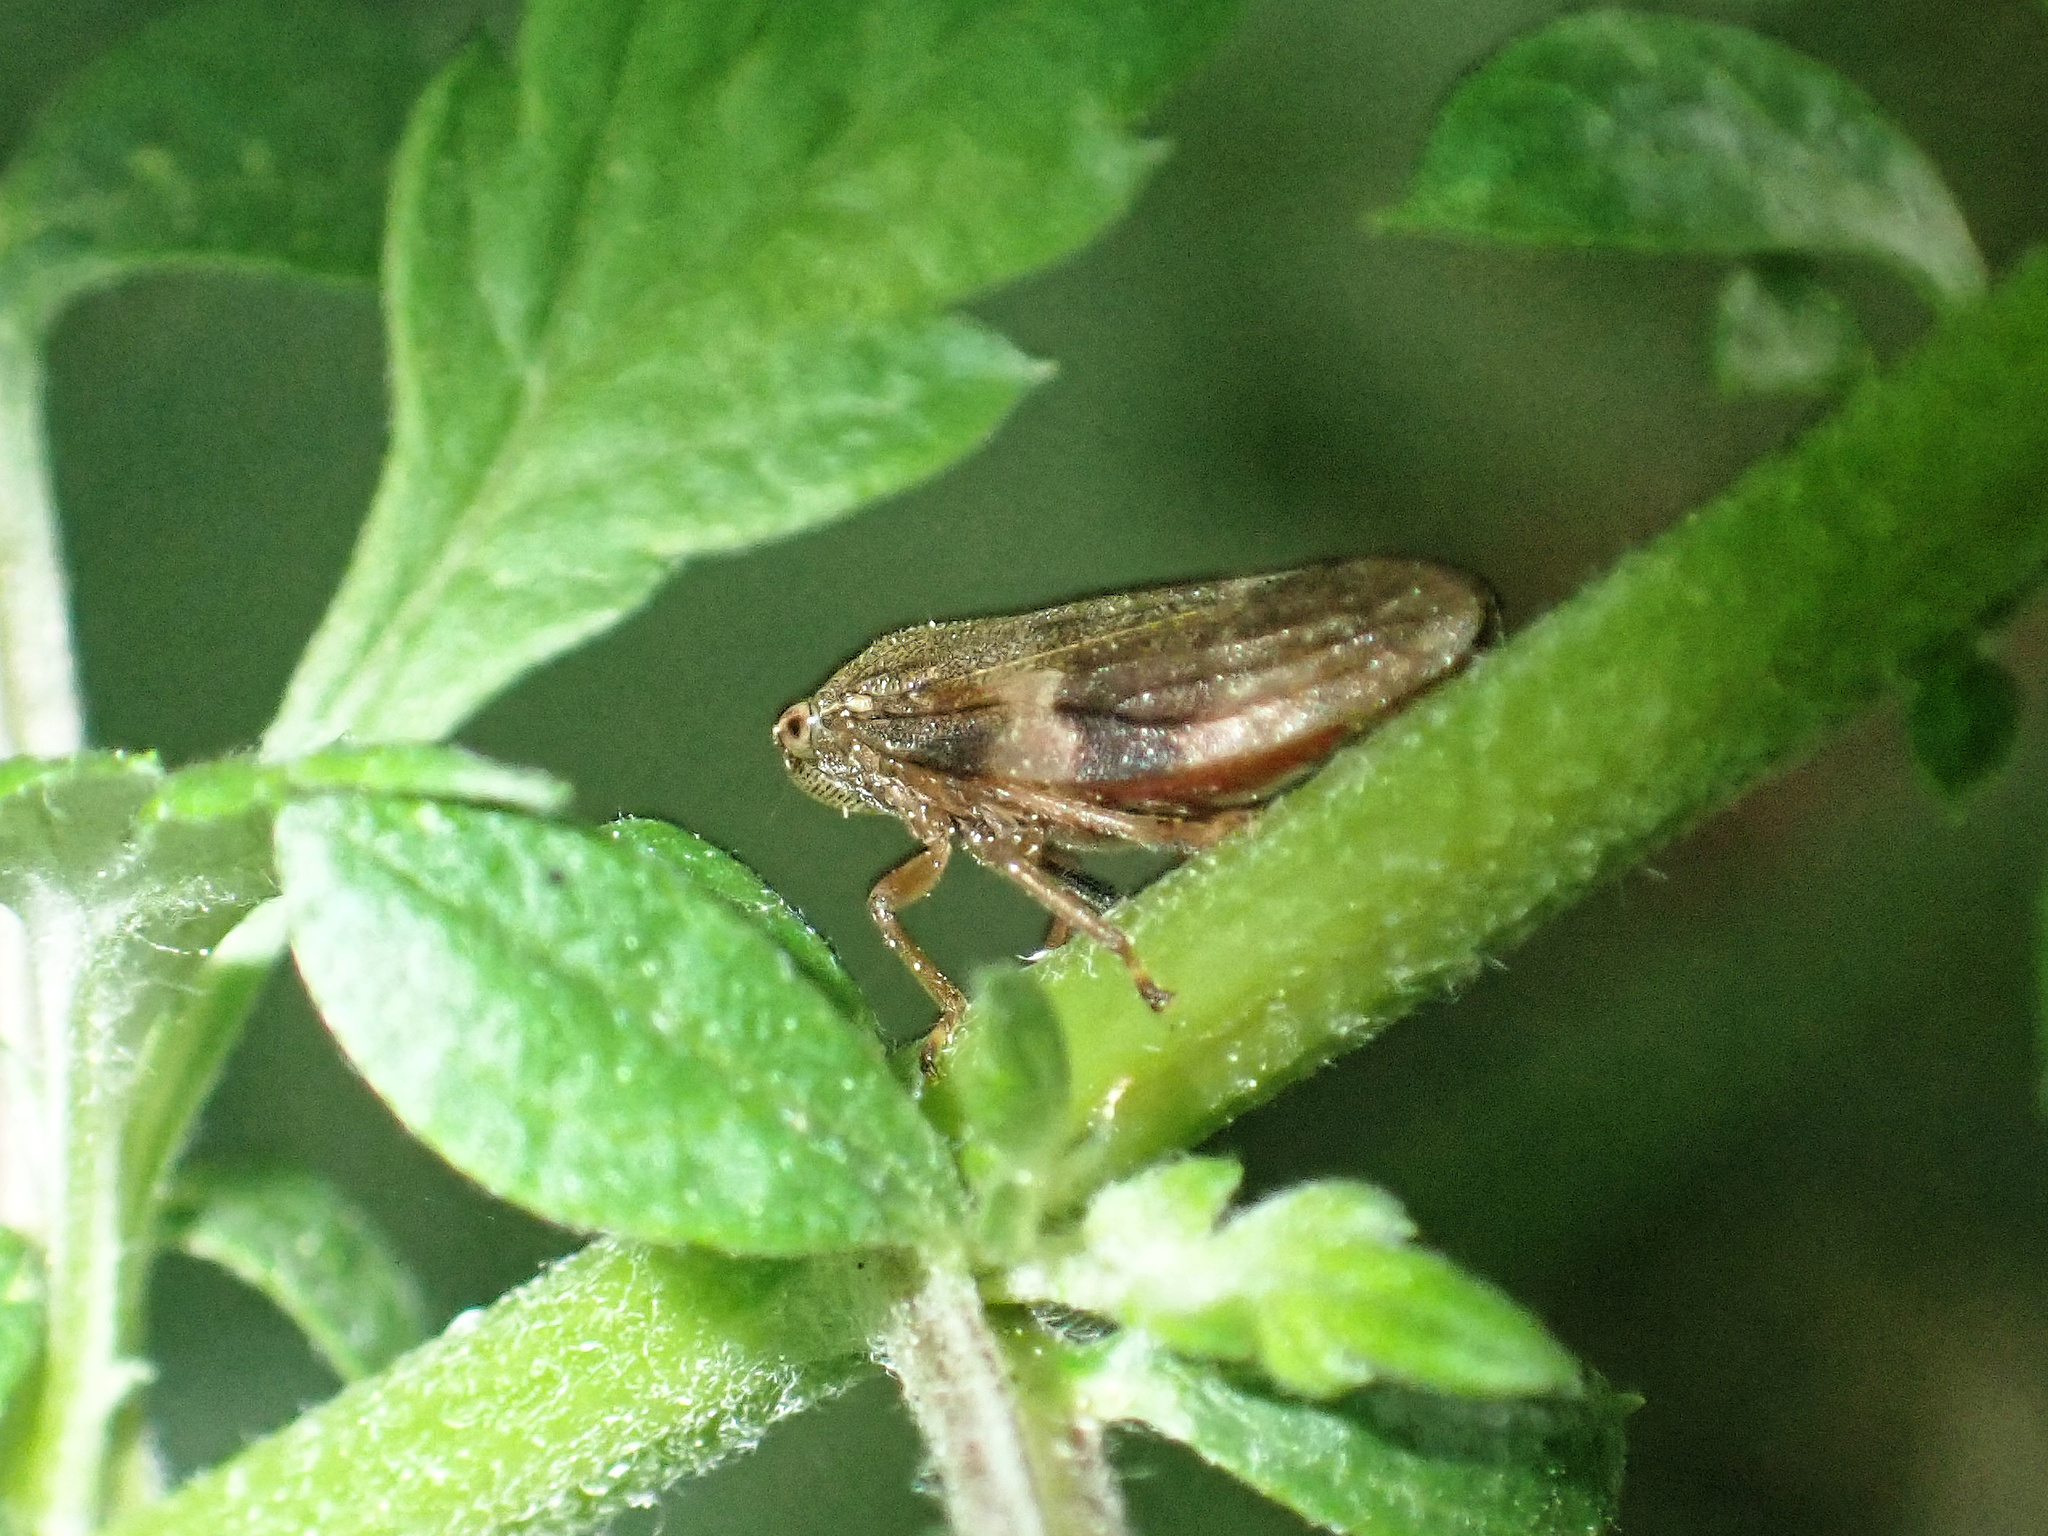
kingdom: Animalia
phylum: Arthropoda
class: Insecta
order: Hemiptera
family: Aphrophoridae
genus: Aphrophora
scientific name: Aphrophora alni
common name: European alder spittlebug
